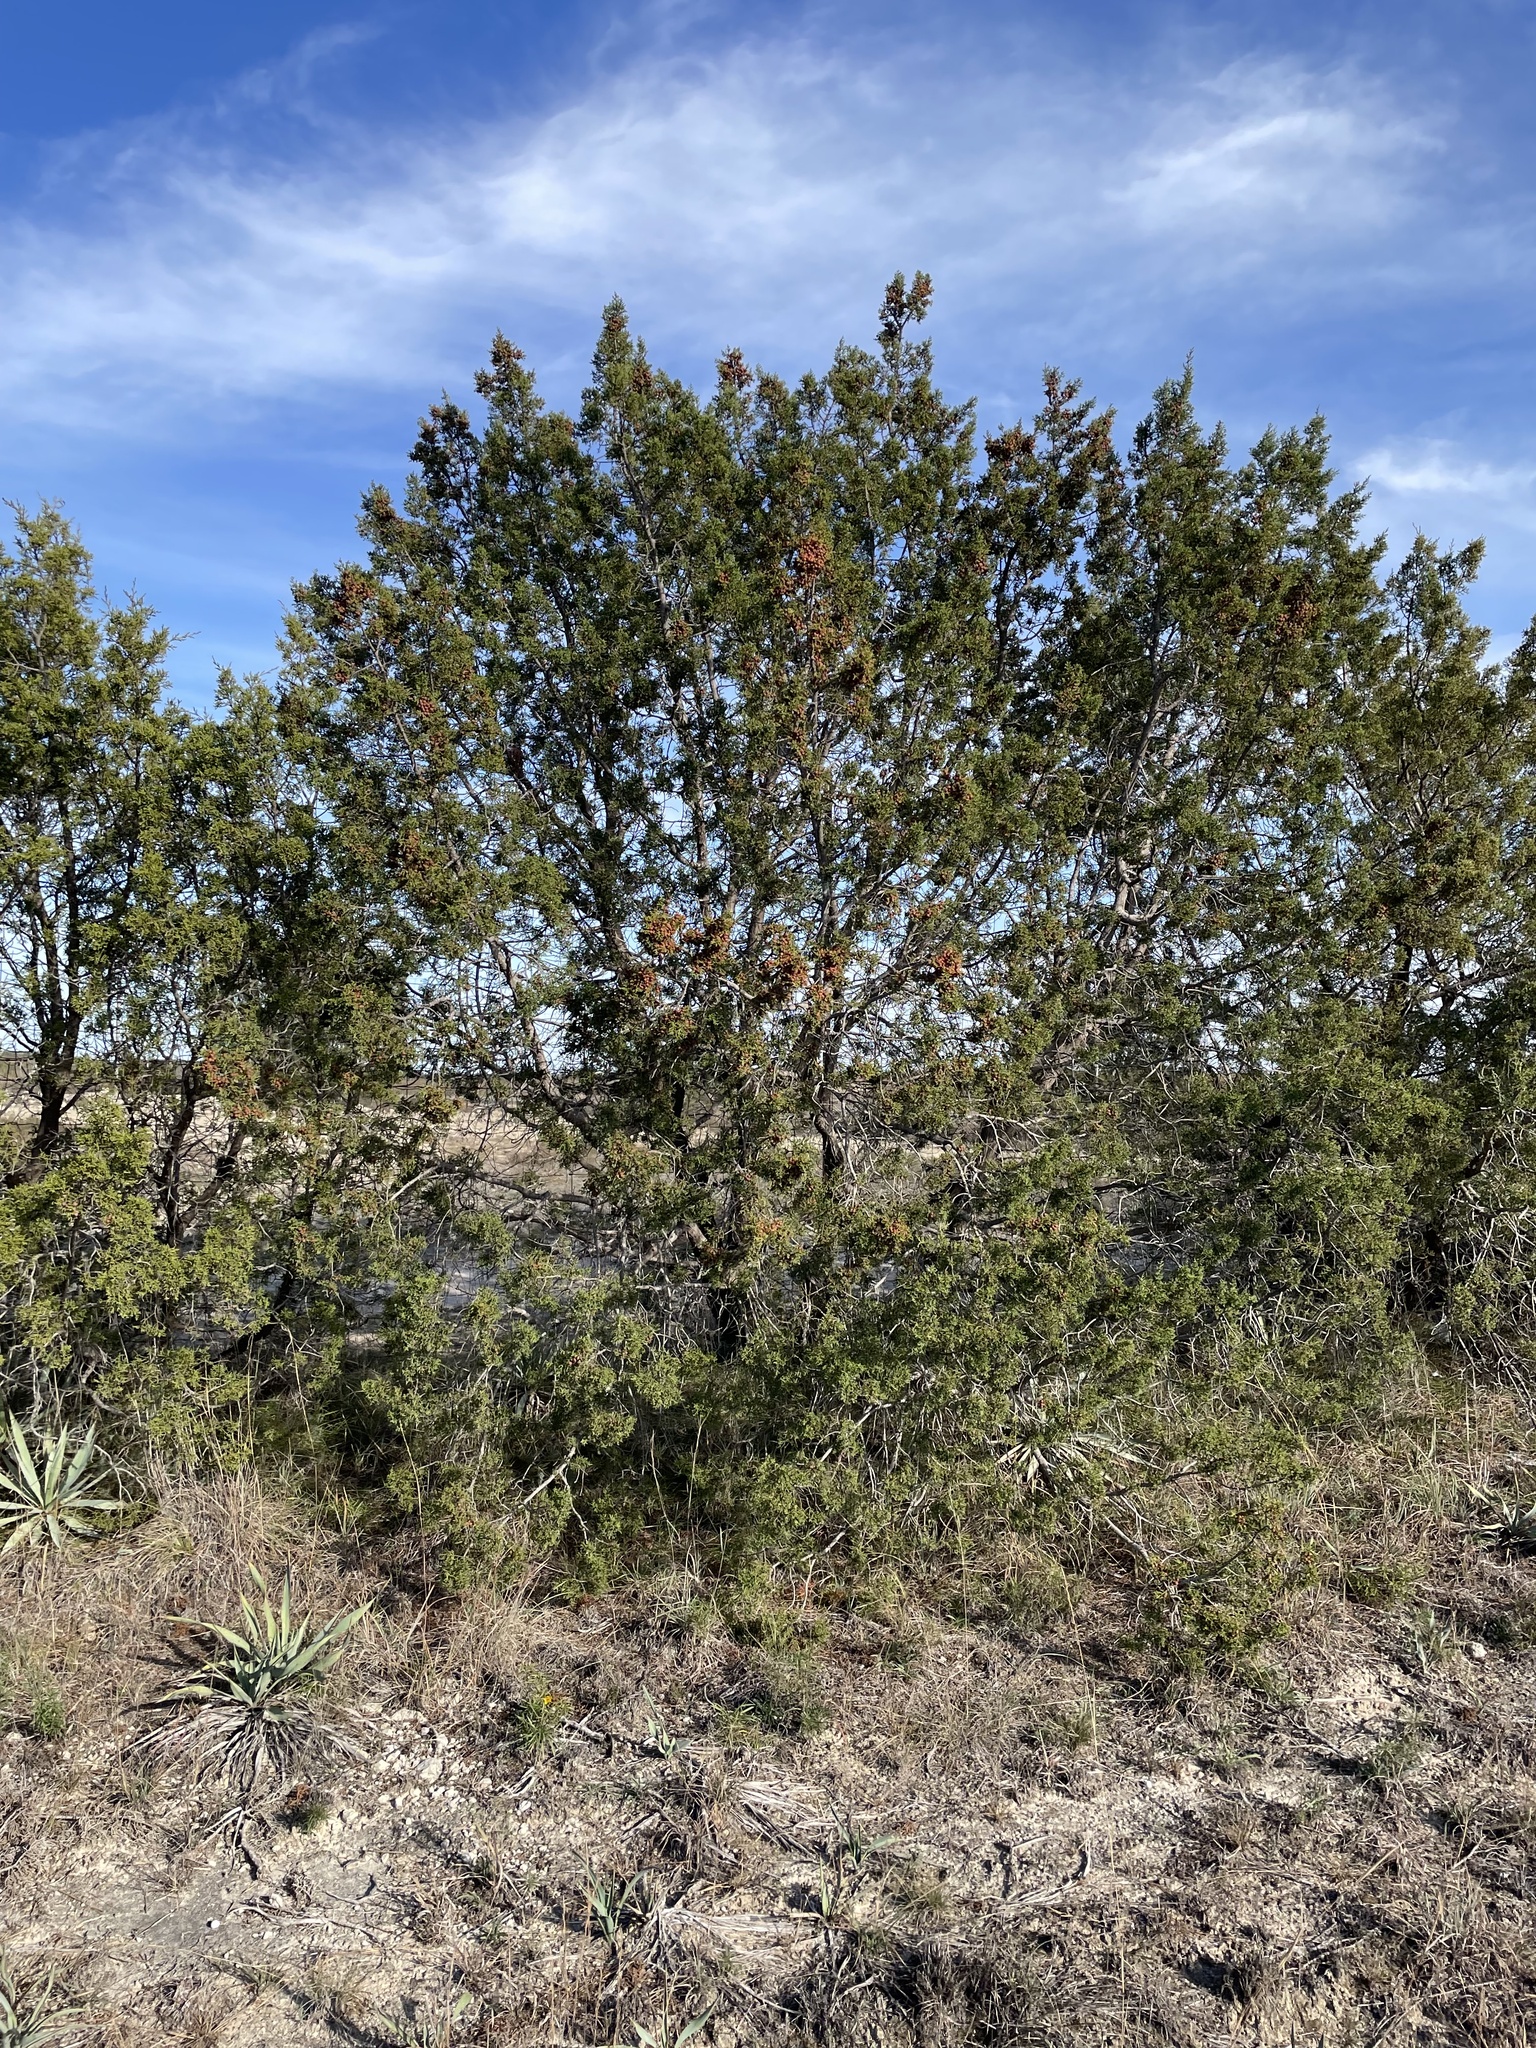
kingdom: Plantae
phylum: Tracheophyta
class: Pinopsida
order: Pinales
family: Cupressaceae
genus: Juniperus
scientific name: Juniperus pinchotii
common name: Pinchot juniper
